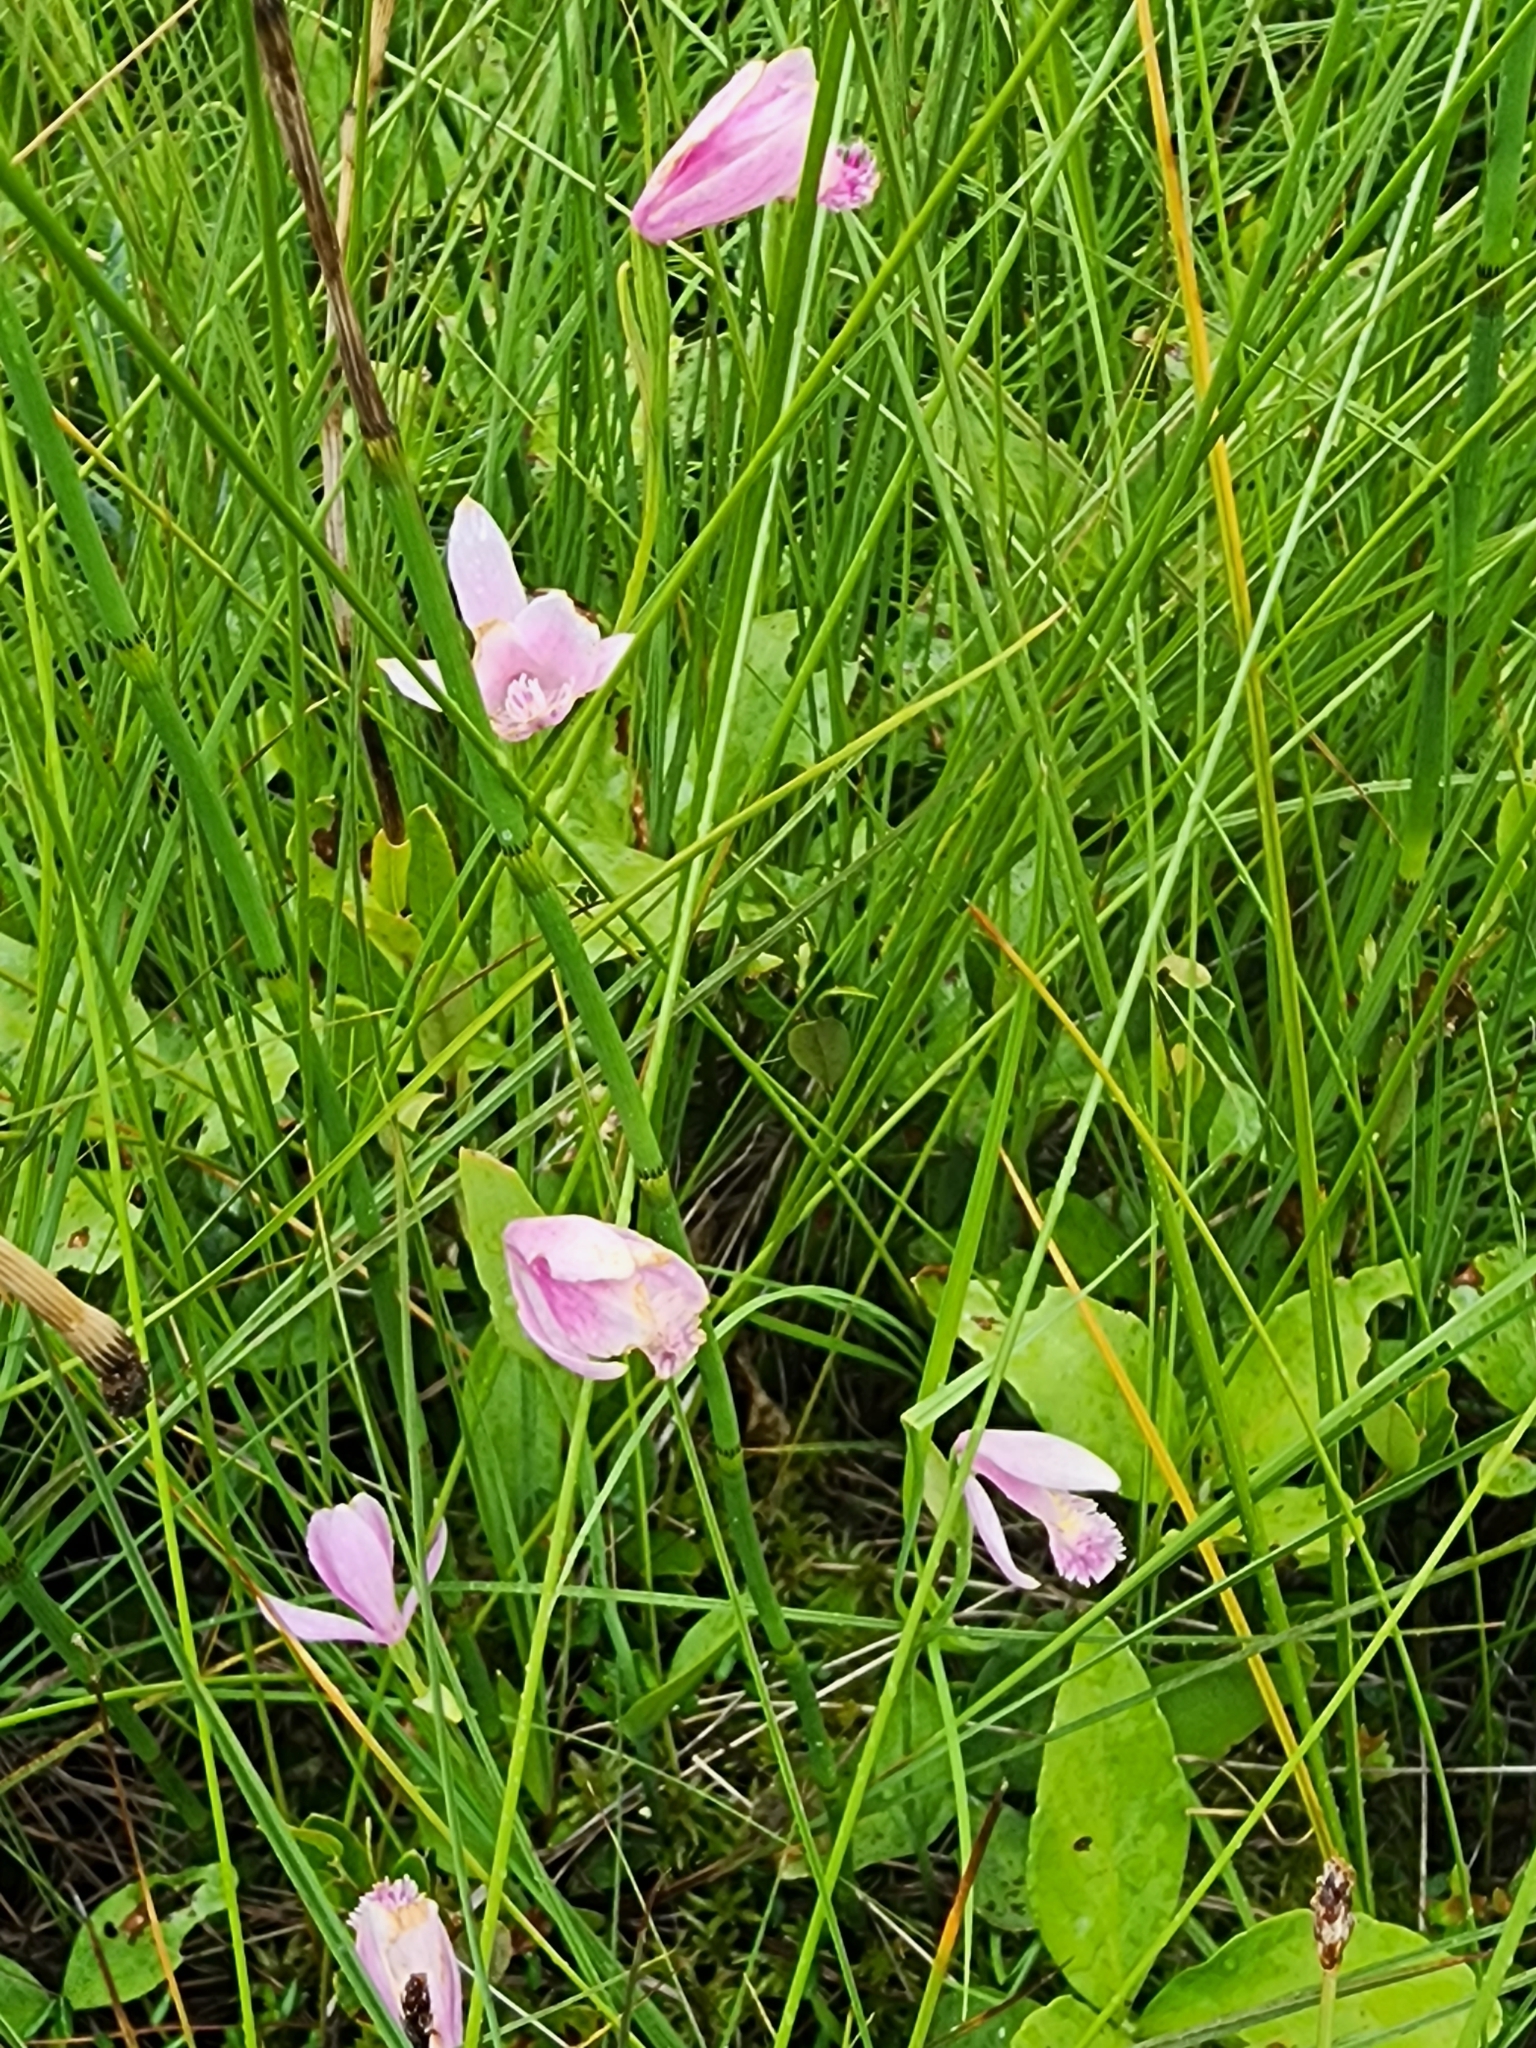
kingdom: Plantae
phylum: Tracheophyta
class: Liliopsida
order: Asparagales
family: Orchidaceae
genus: Pogonia
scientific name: Pogonia ophioglossoides
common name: Rose pogonia
